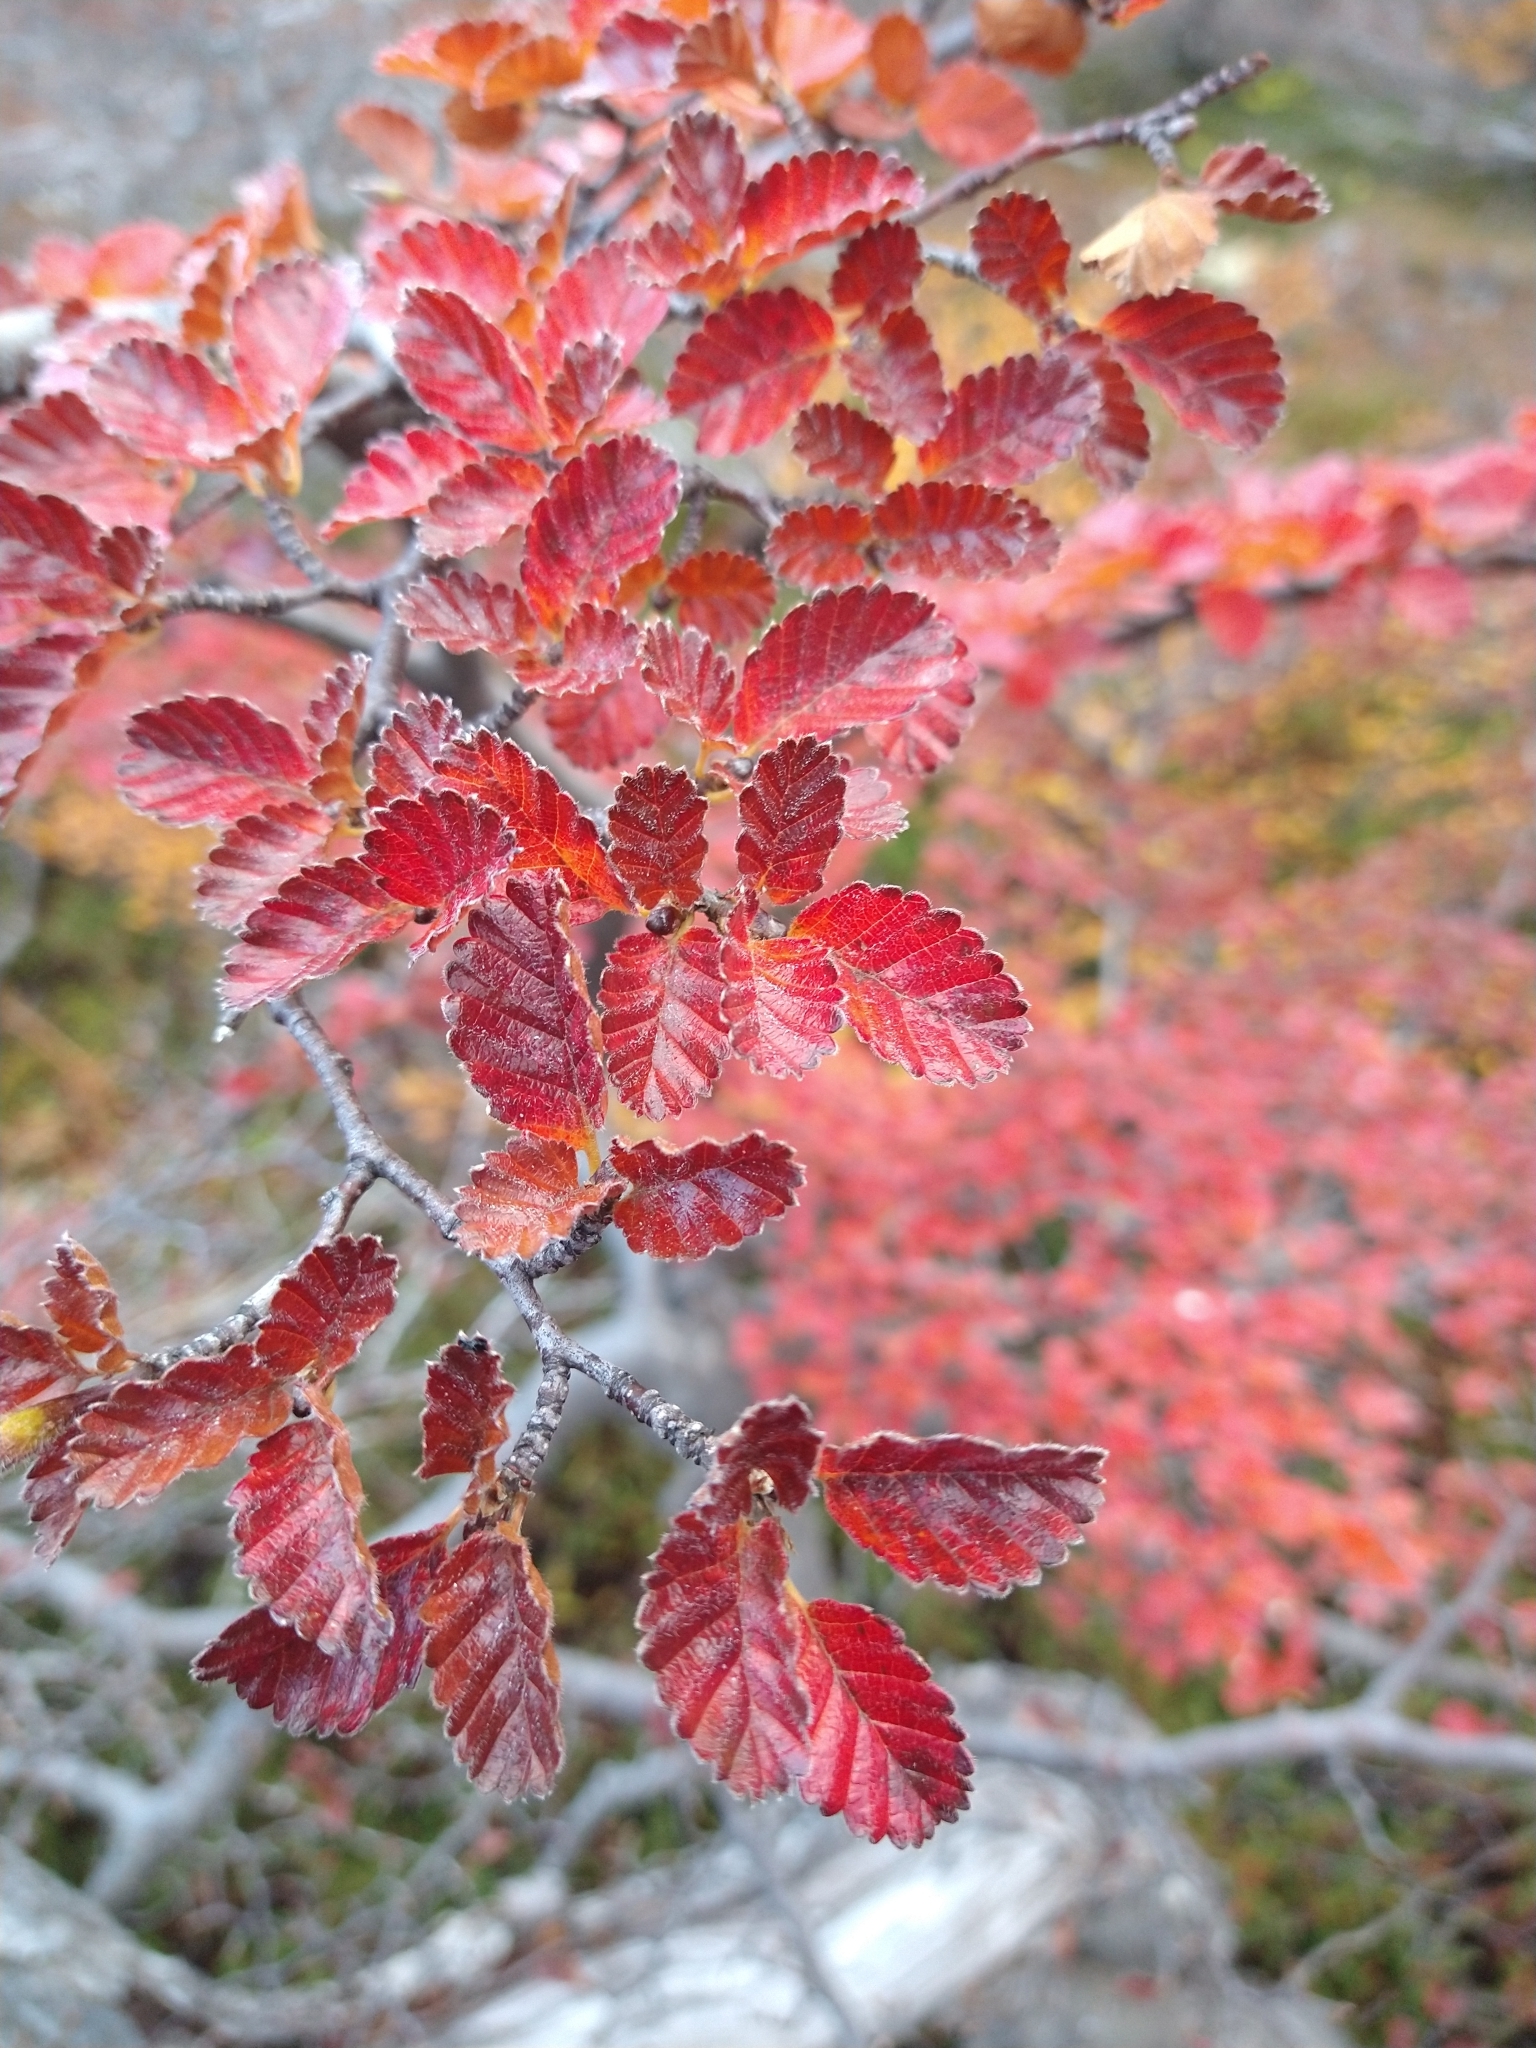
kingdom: Plantae
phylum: Tracheophyta
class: Magnoliopsida
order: Fagales
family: Nothofagaceae
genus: Nothofagus
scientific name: Nothofagus pumilio
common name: Lenga beech
